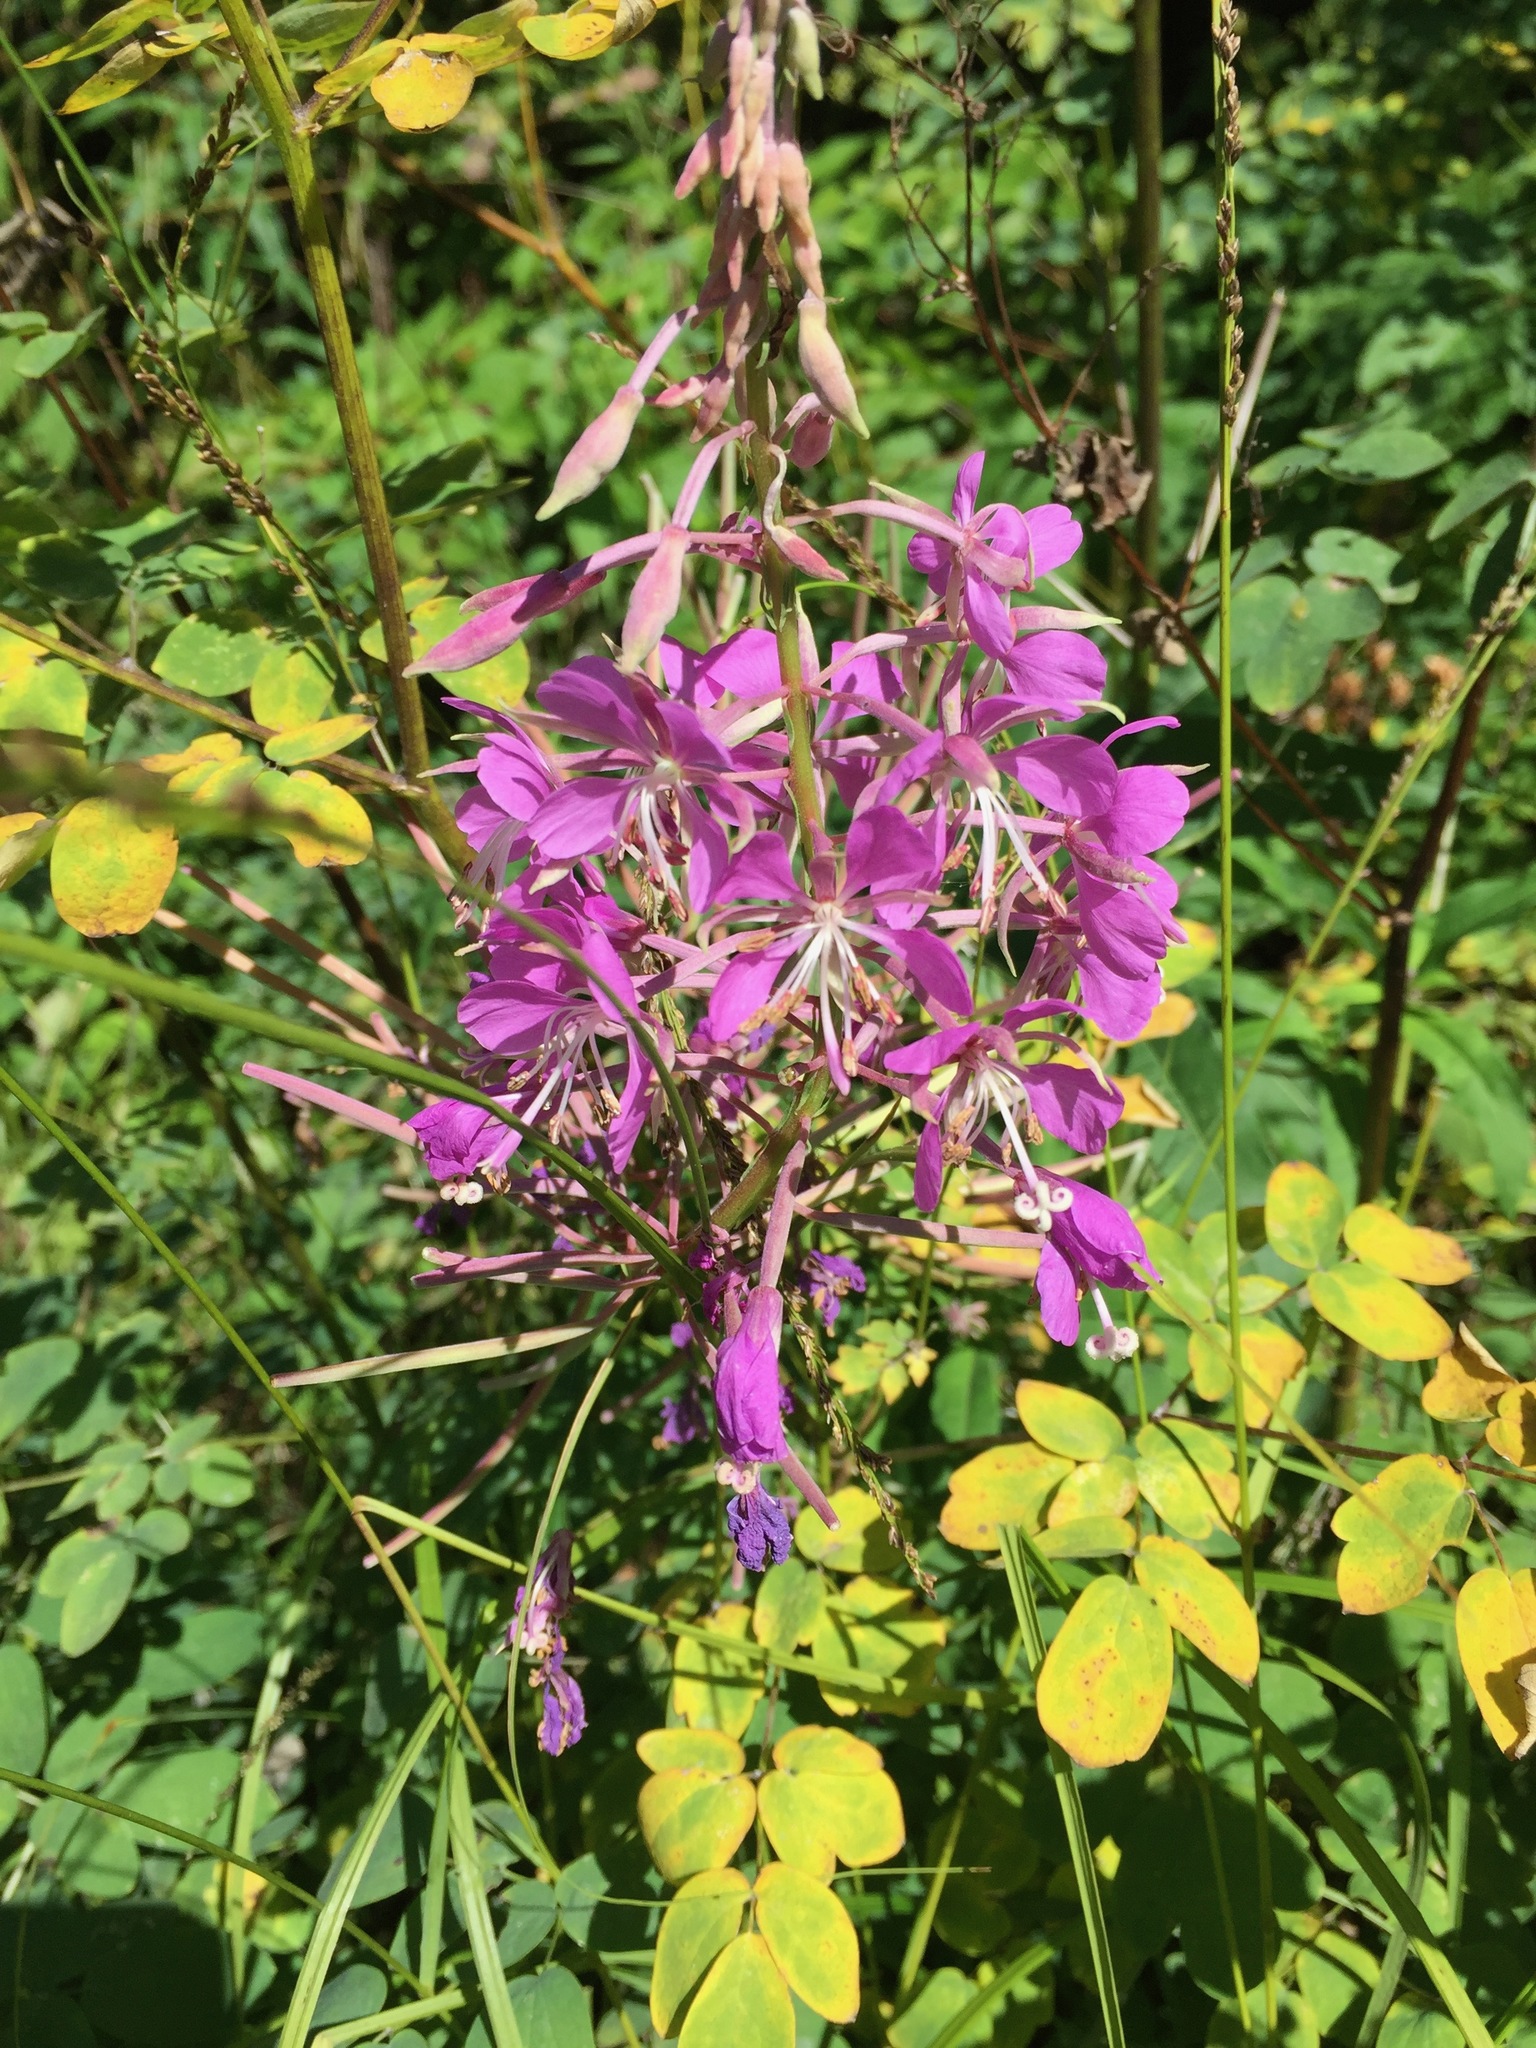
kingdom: Plantae
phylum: Tracheophyta
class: Magnoliopsida
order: Myrtales
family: Onagraceae
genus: Chamaenerion
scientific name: Chamaenerion angustifolium
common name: Fireweed
